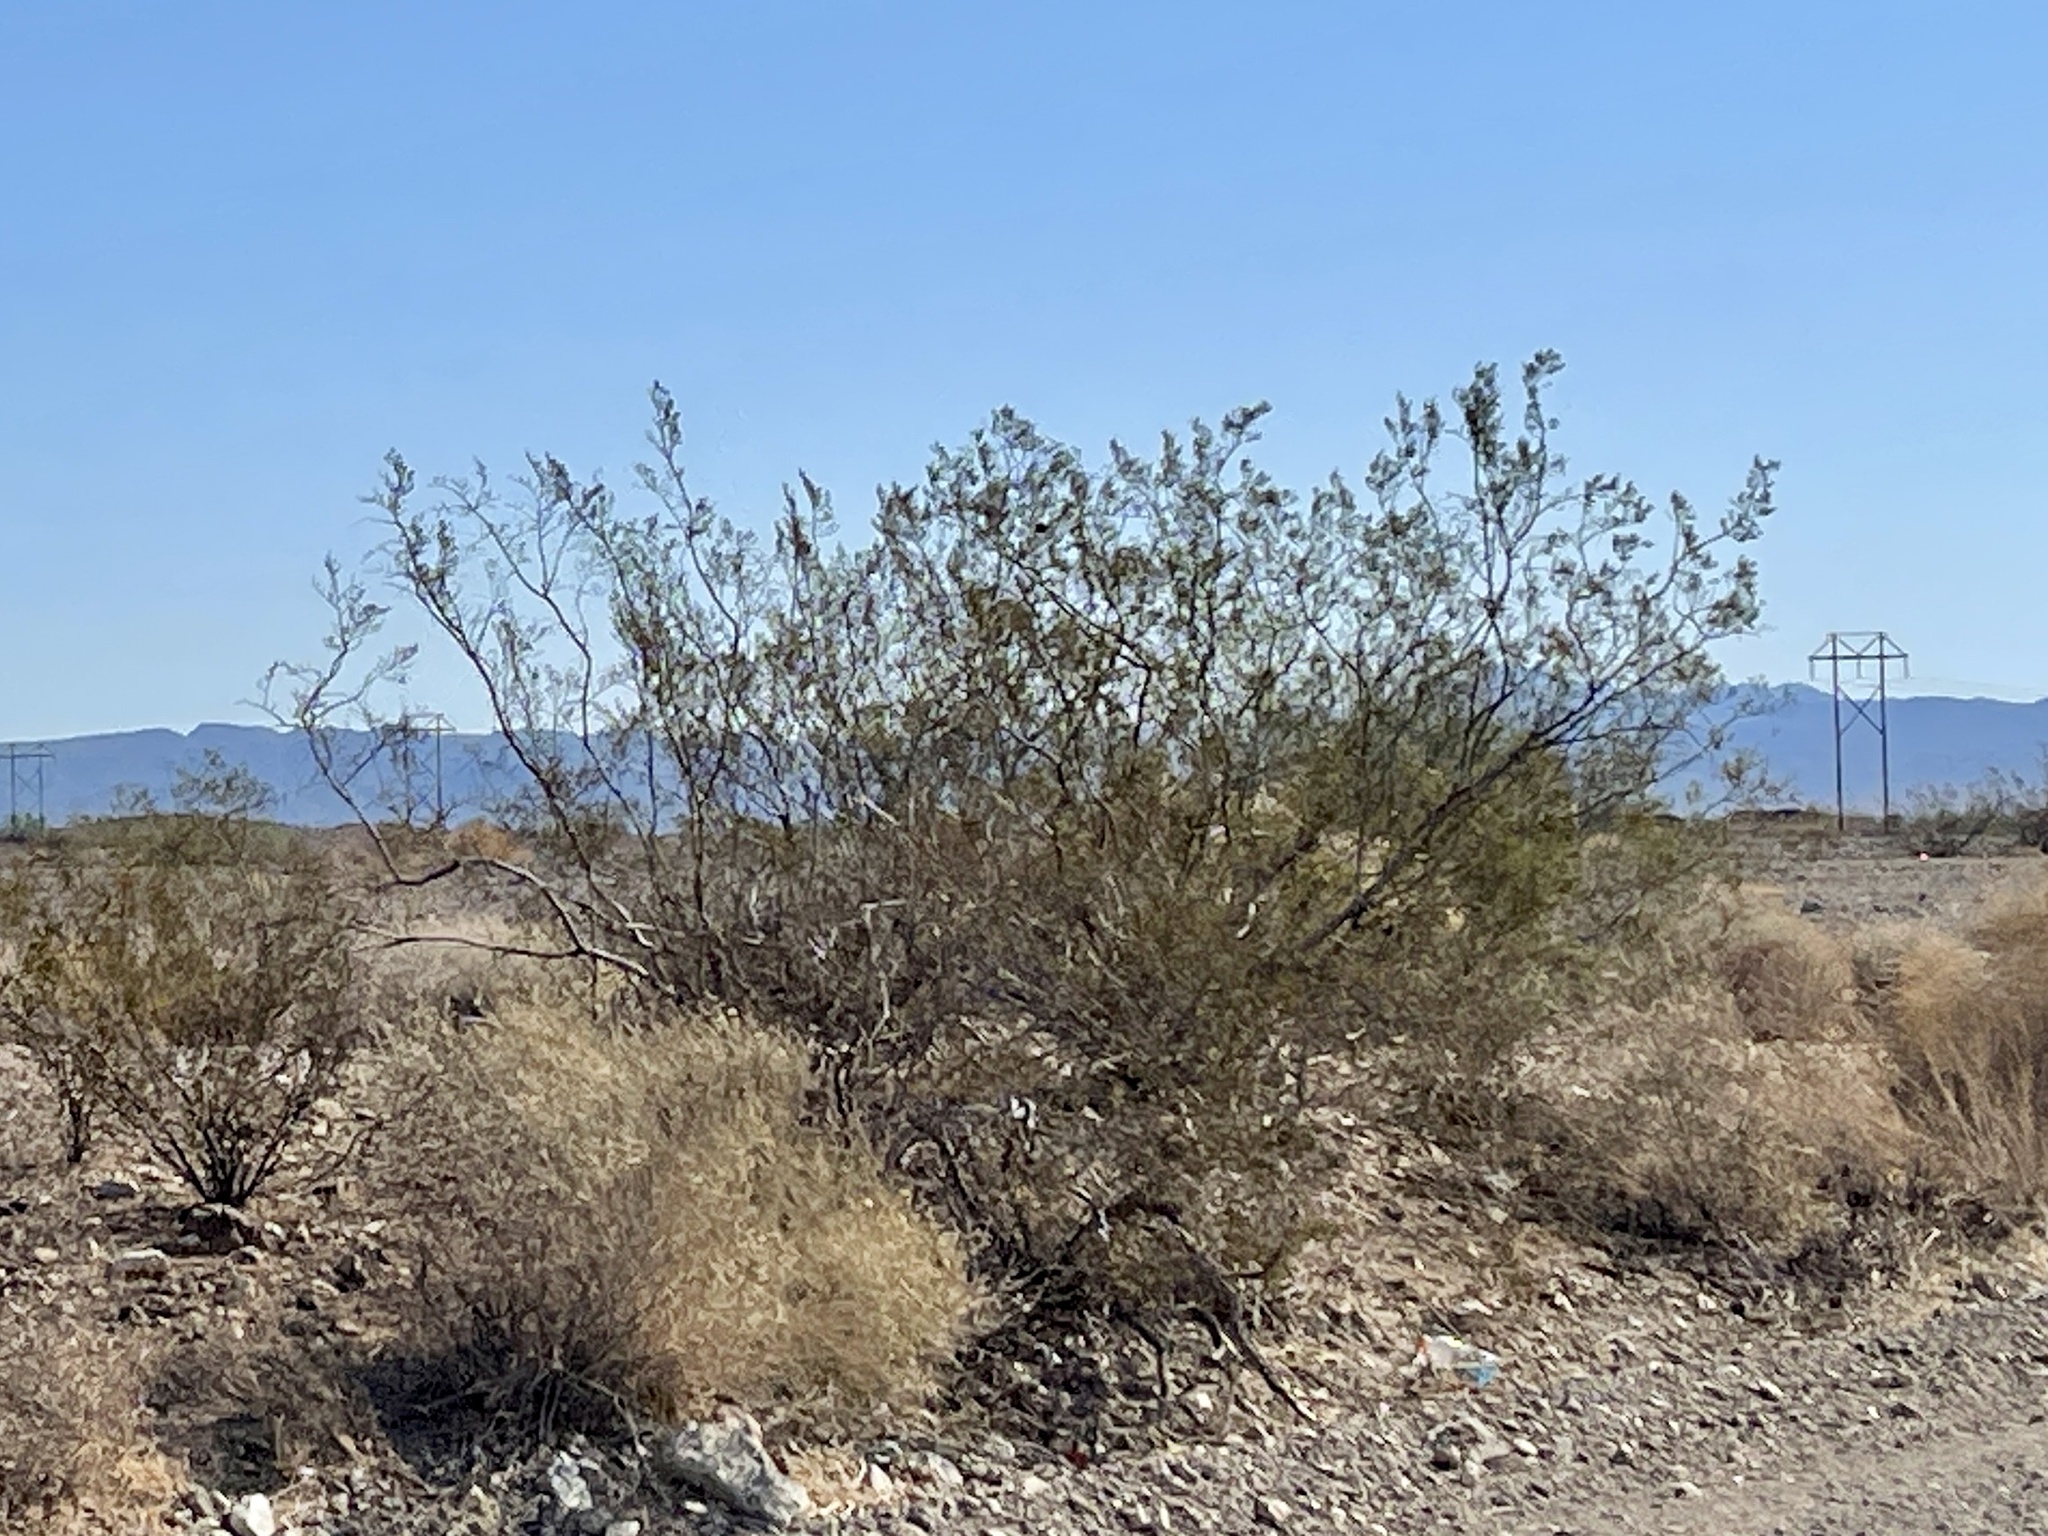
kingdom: Plantae
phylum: Tracheophyta
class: Magnoliopsida
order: Zygophyllales
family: Zygophyllaceae
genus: Larrea
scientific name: Larrea tridentata
